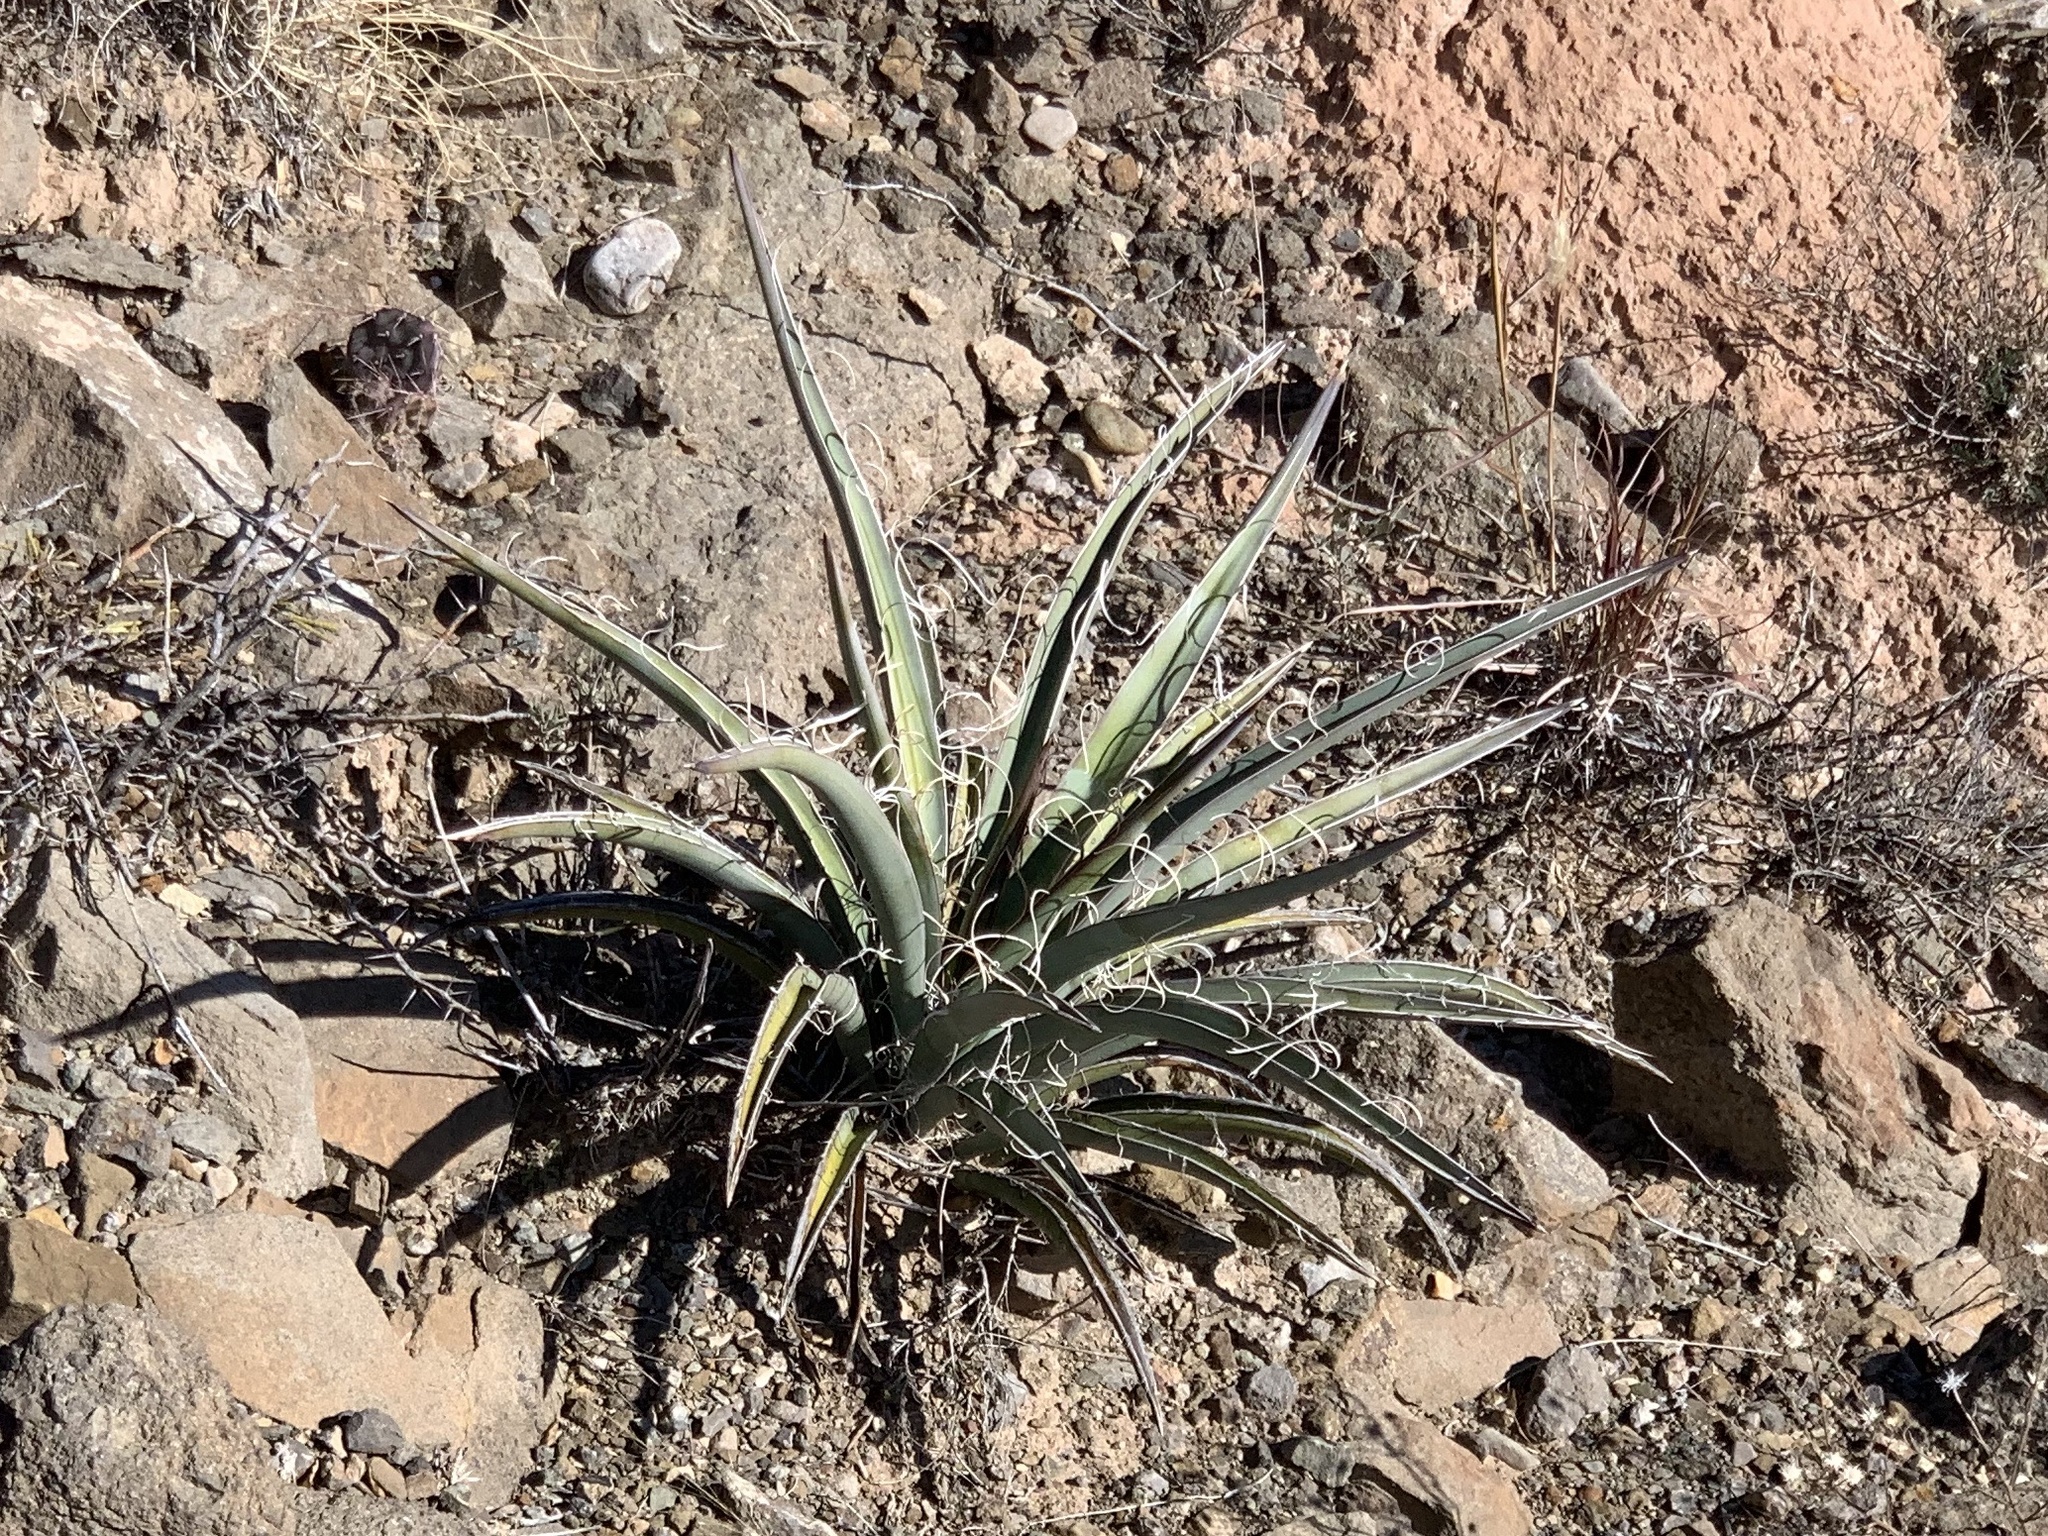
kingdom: Plantae
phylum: Tracheophyta
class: Liliopsida
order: Asparagales
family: Asparagaceae
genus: Yucca
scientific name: Yucca baccata
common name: Banana yucca
